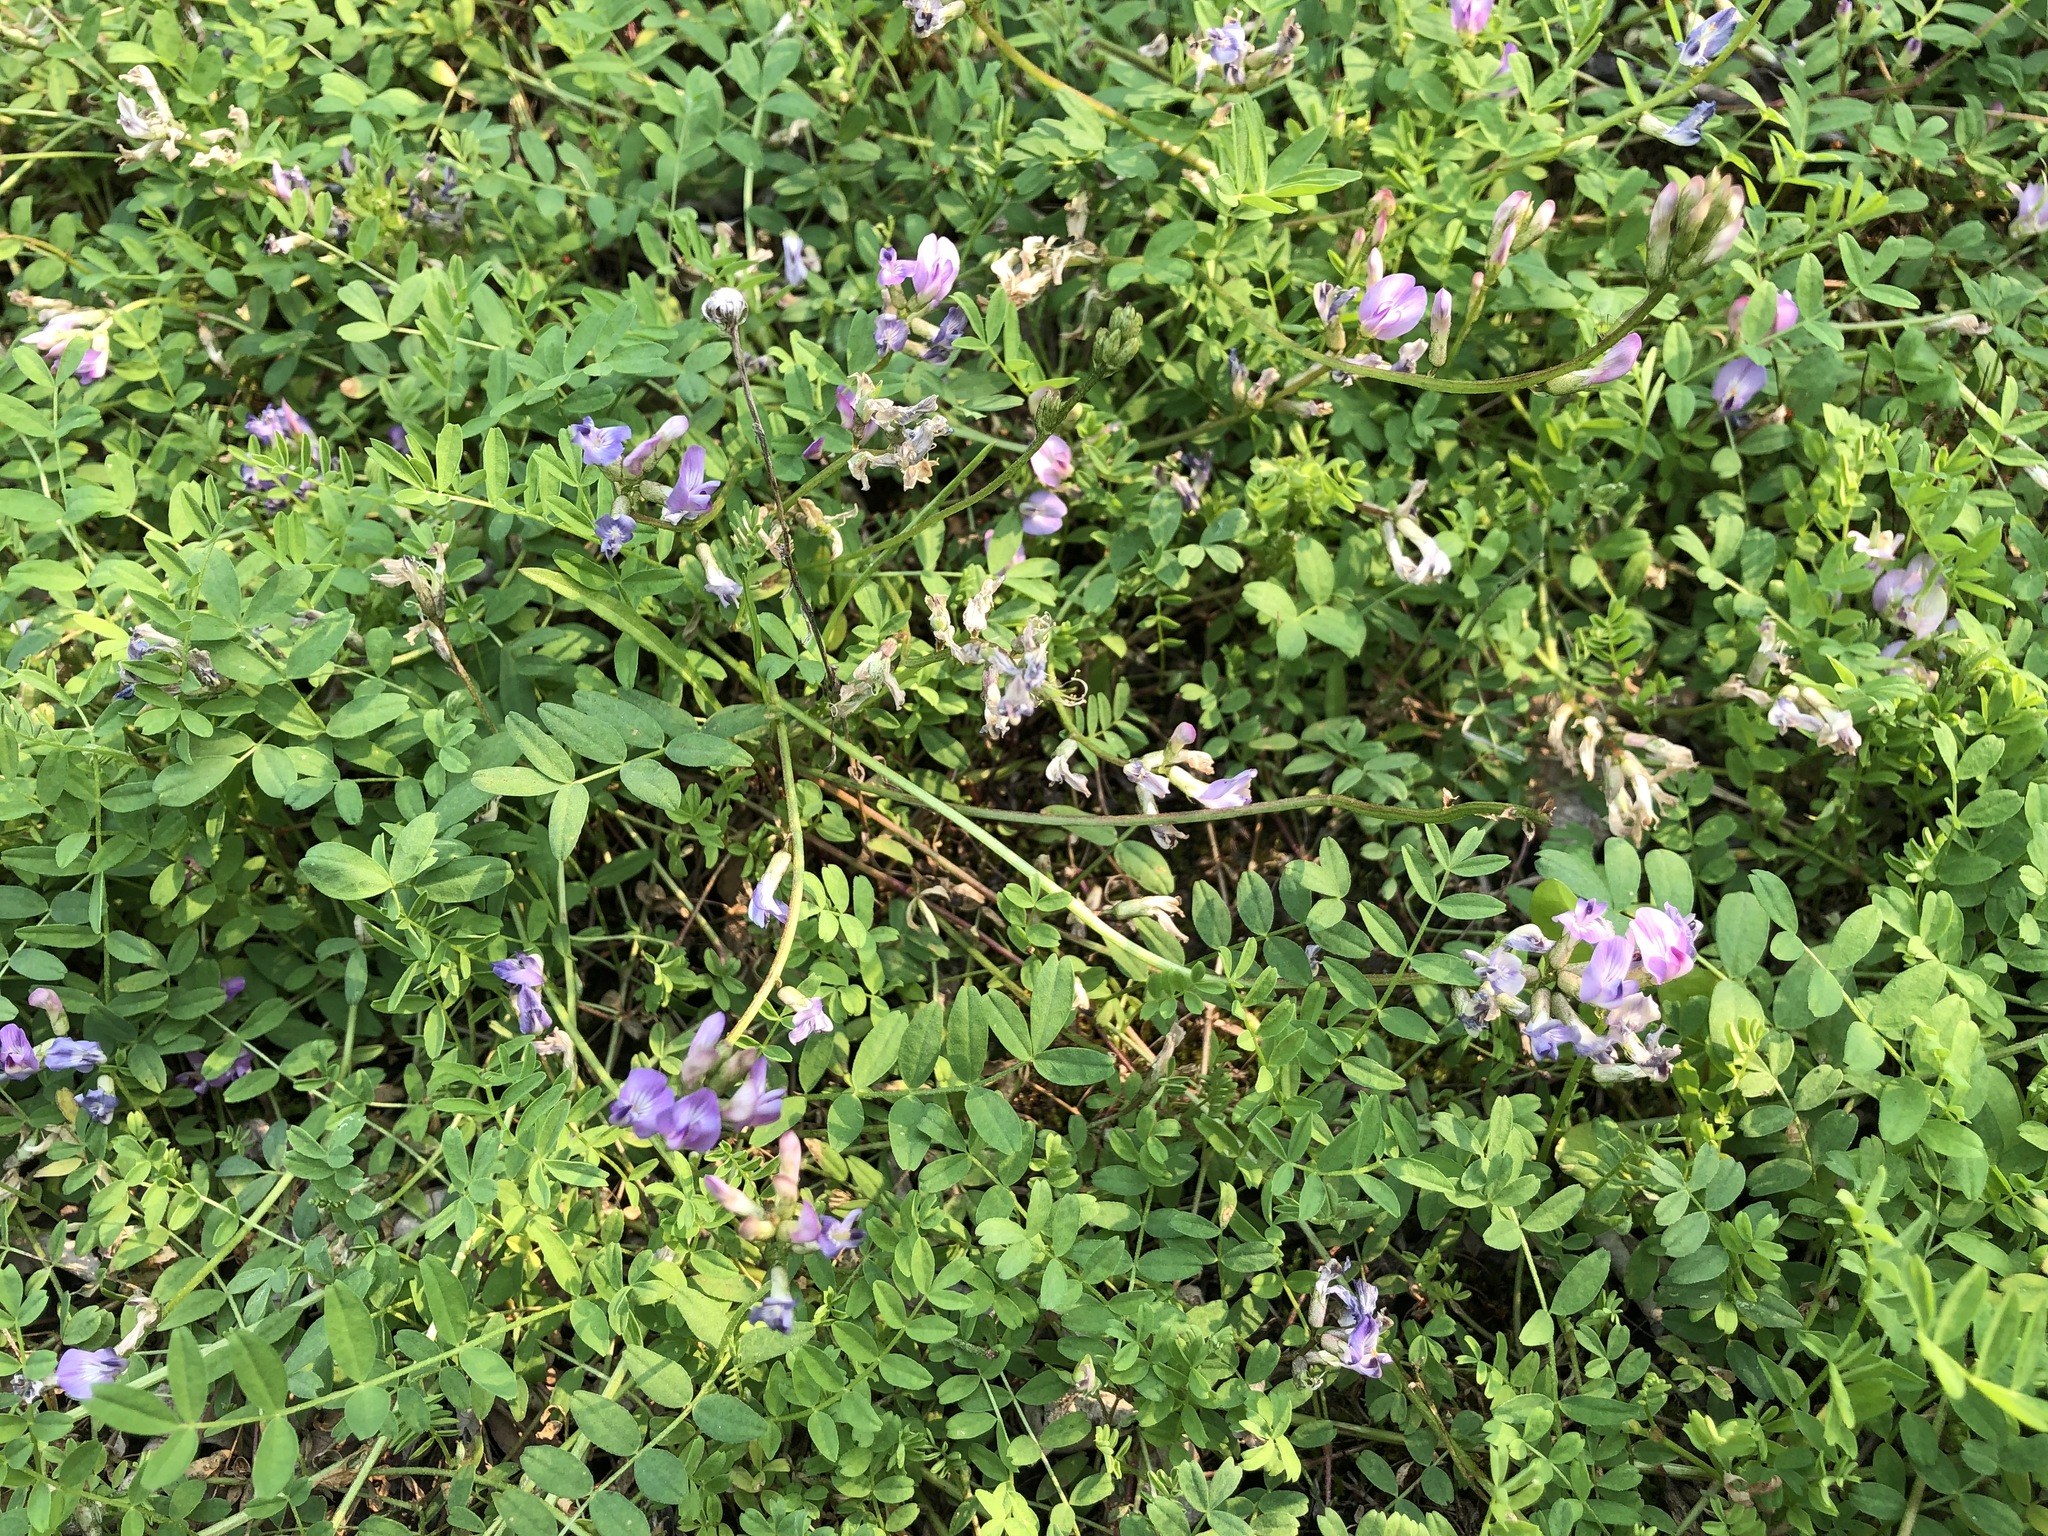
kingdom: Plantae
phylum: Tracheophyta
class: Magnoliopsida
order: Fabales
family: Fabaceae
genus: Astragalus
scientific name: Astragalus bodinii
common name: Bodin's milk-vetch
